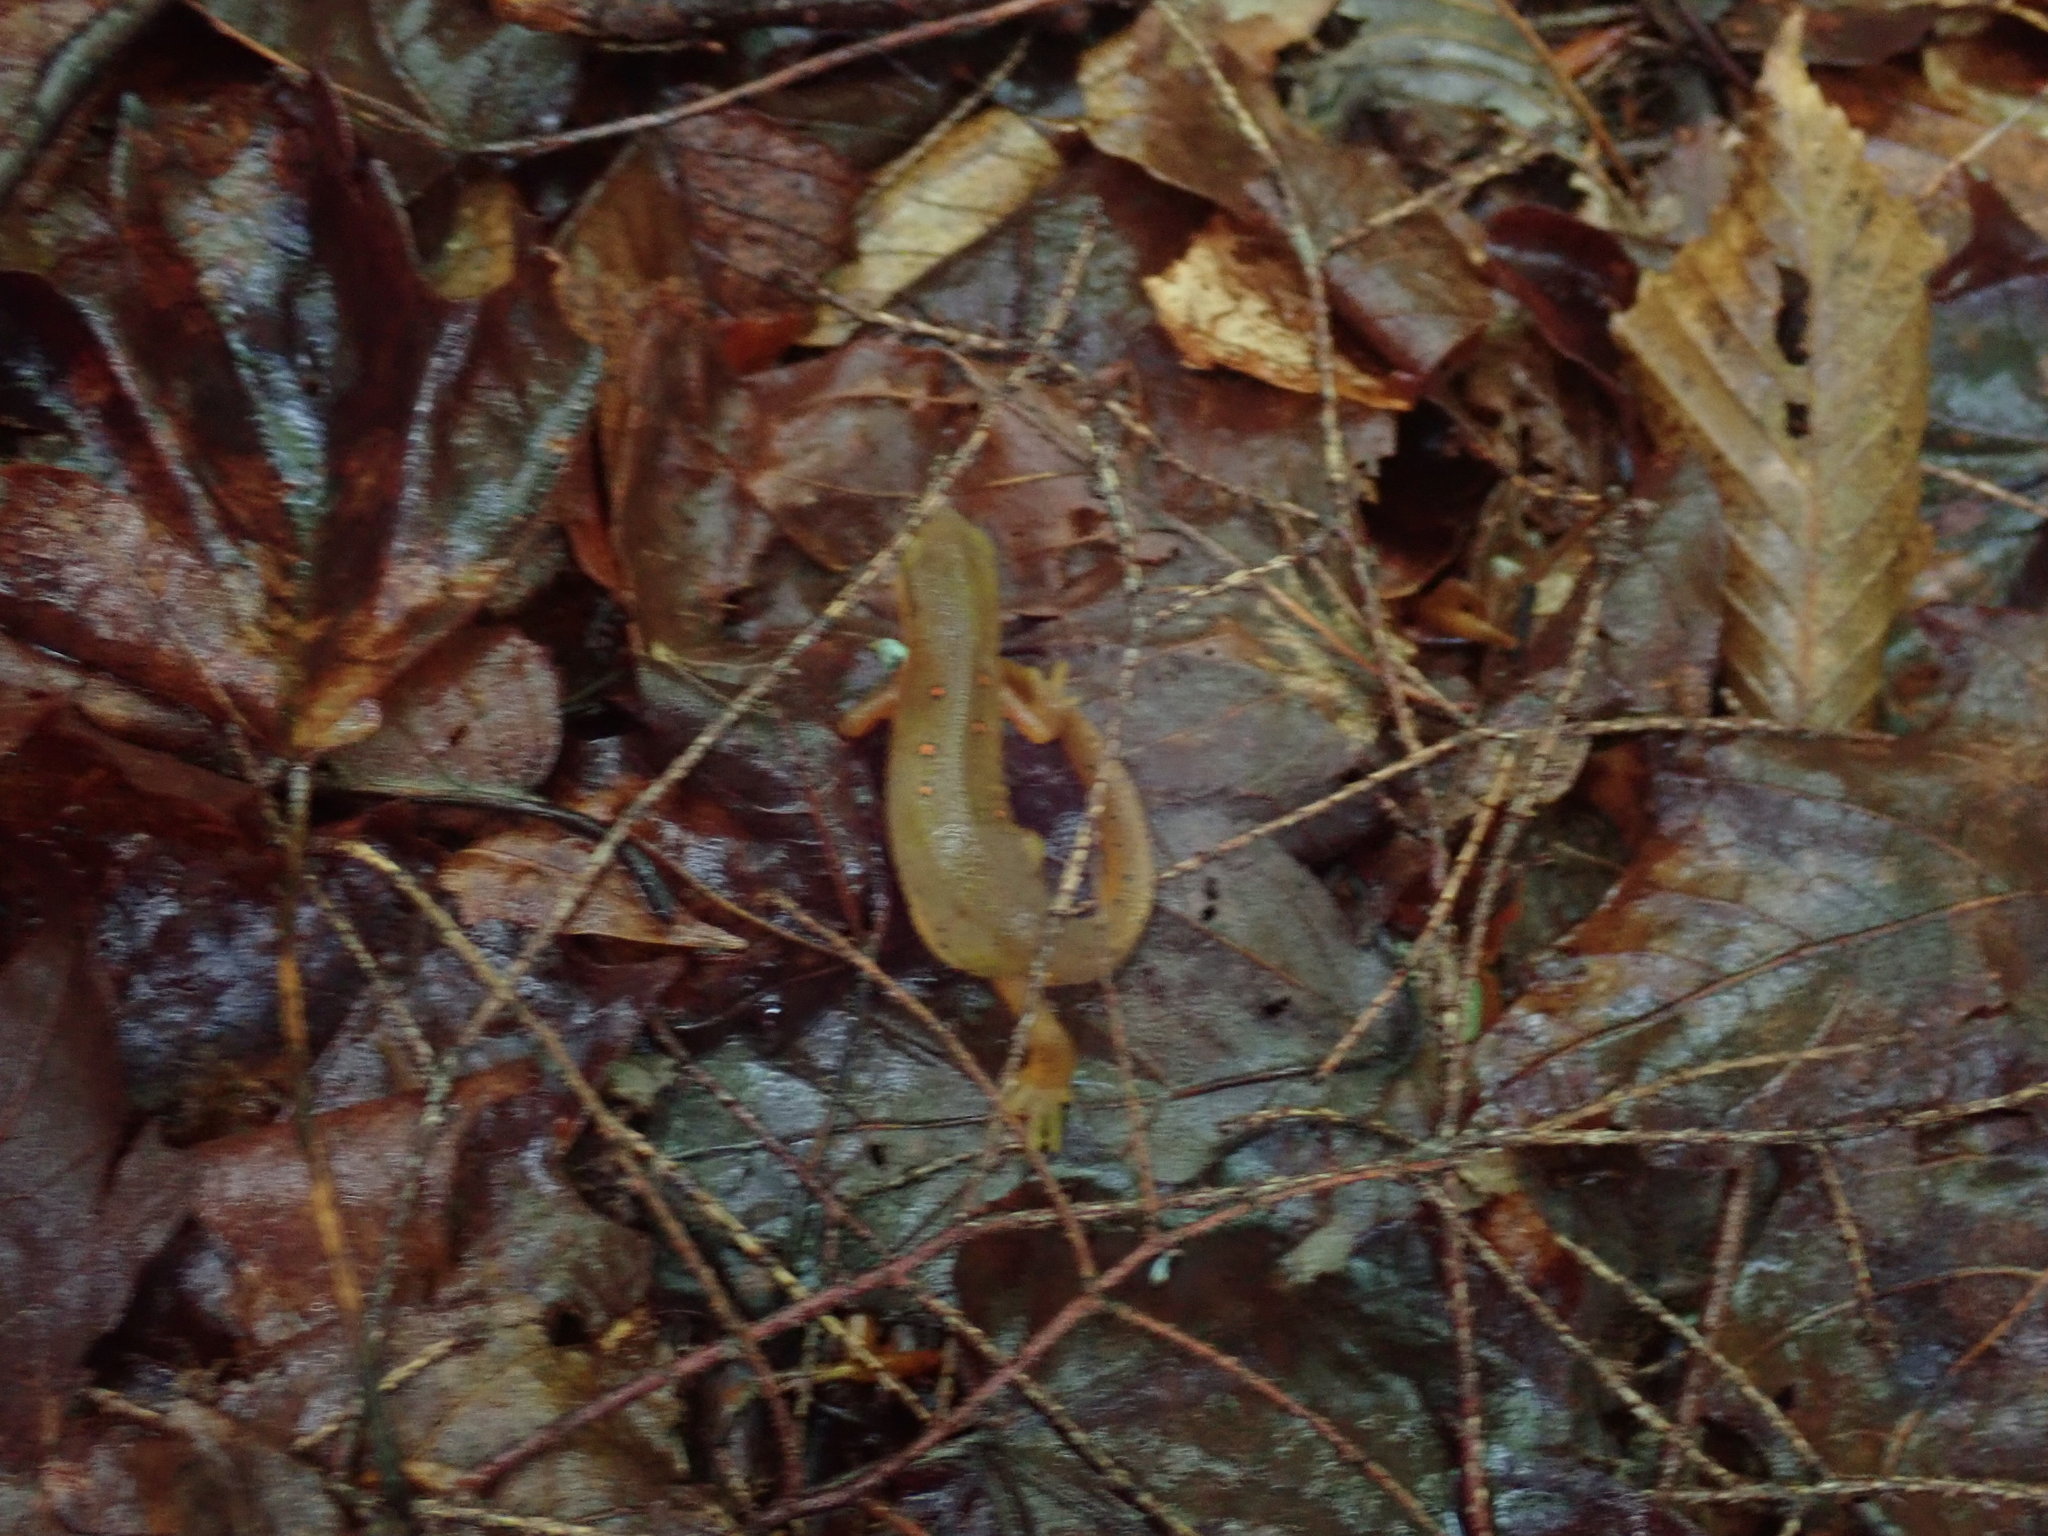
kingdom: Animalia
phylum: Chordata
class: Amphibia
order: Caudata
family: Salamandridae
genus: Notophthalmus
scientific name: Notophthalmus viridescens
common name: Eastern newt
